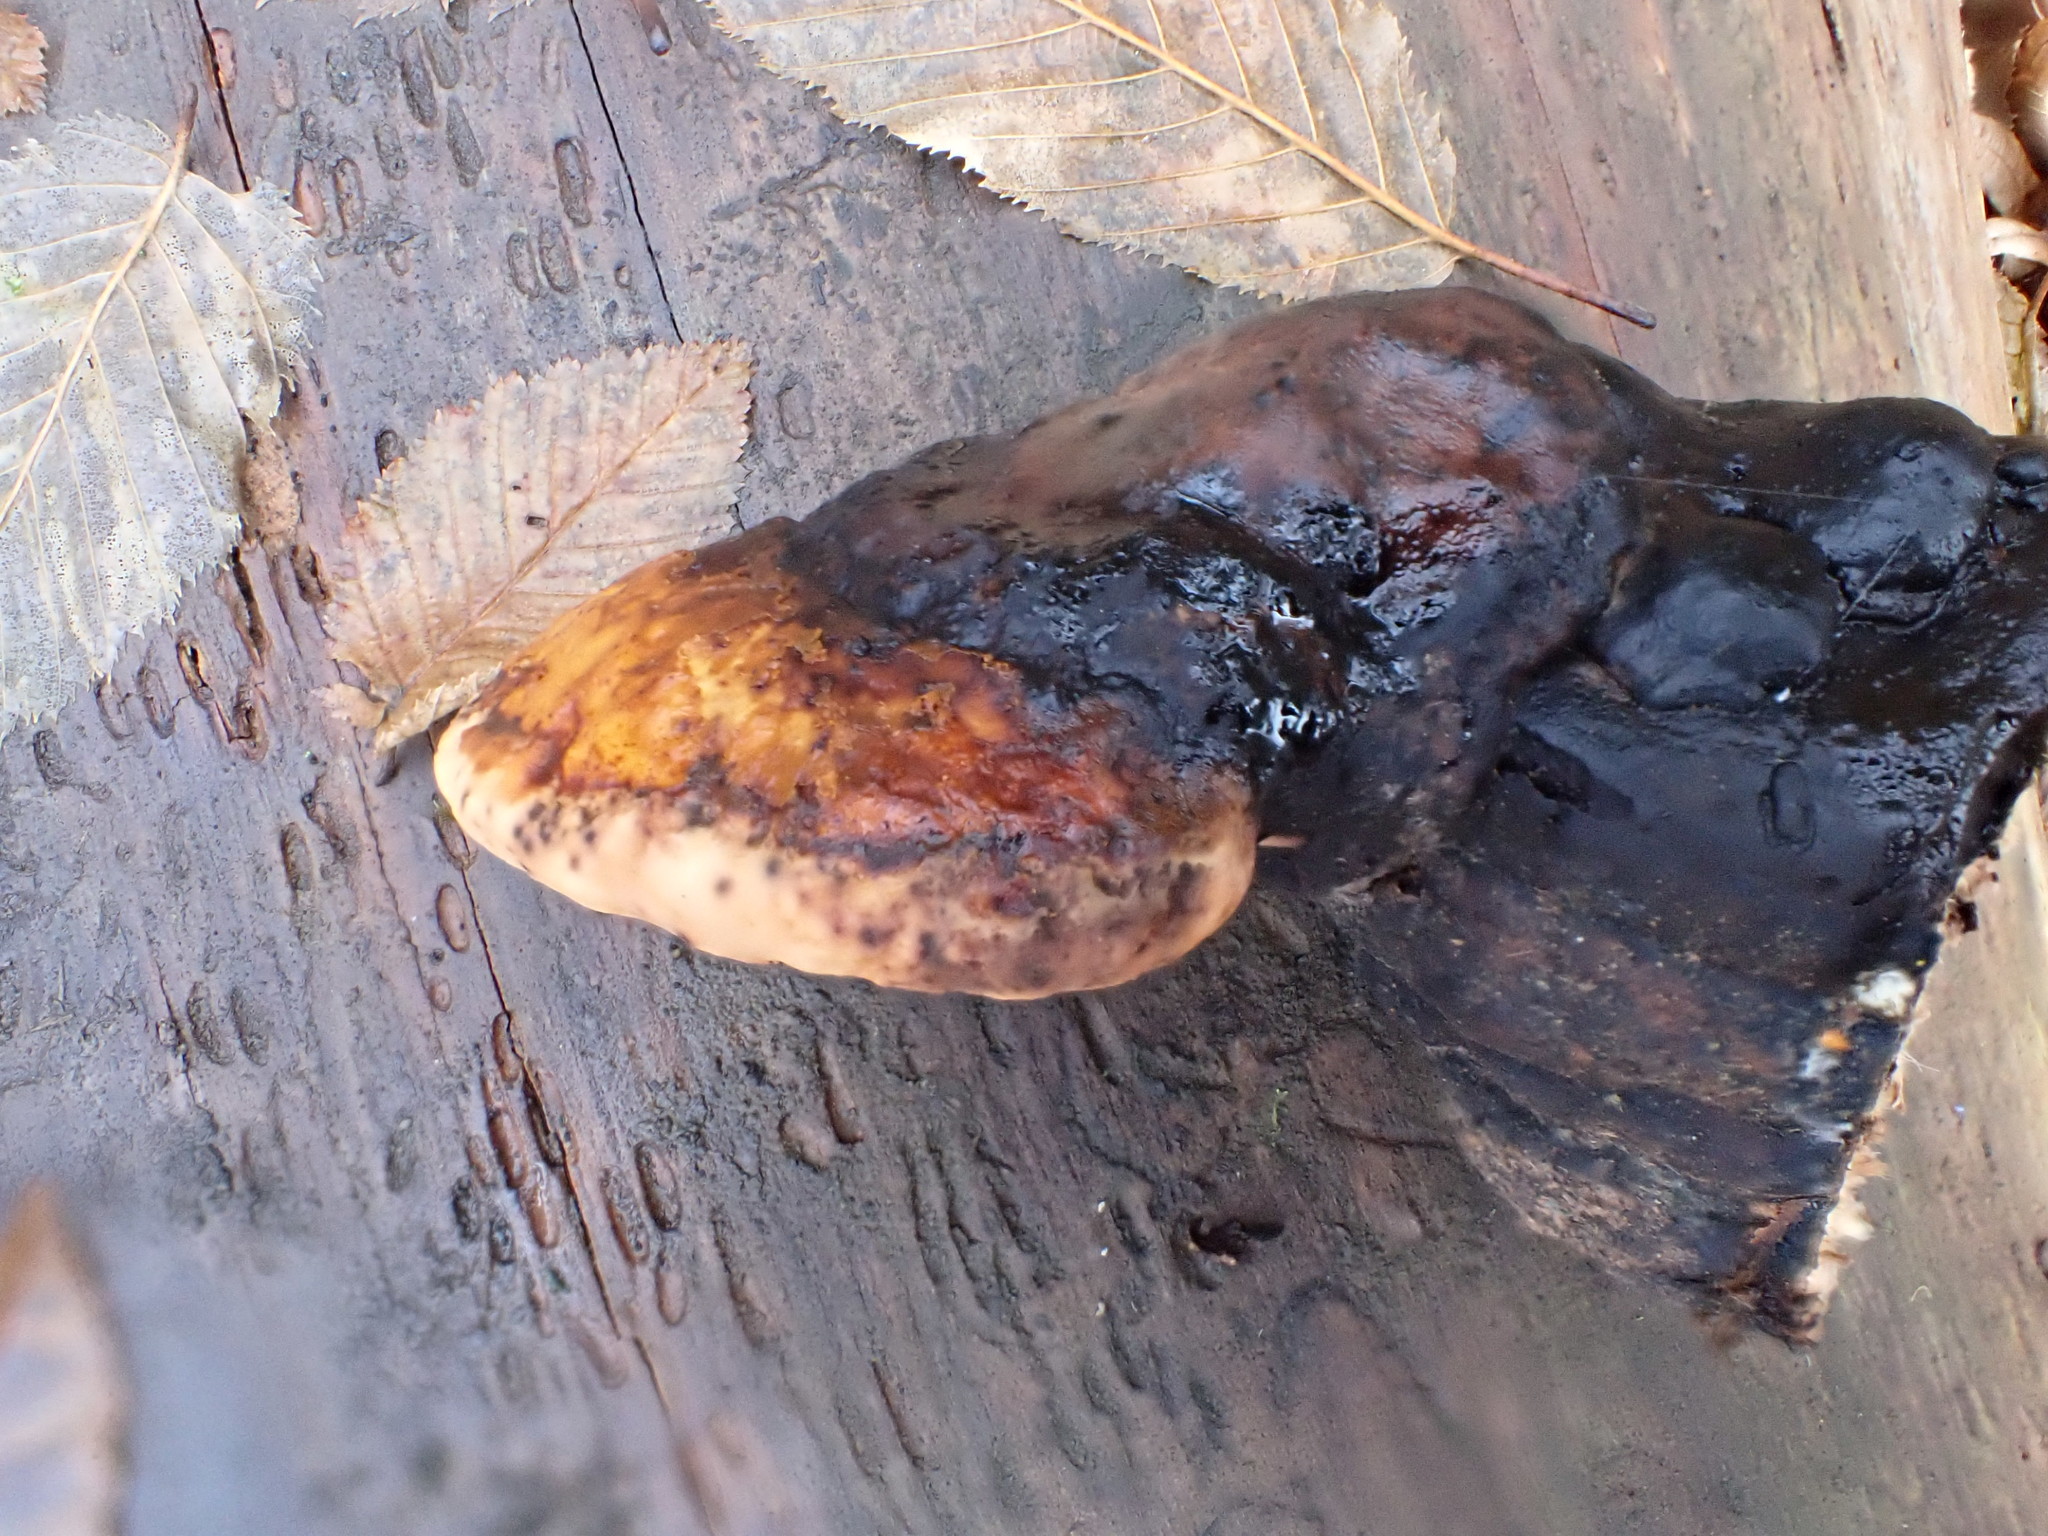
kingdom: Fungi
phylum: Basidiomycota
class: Agaricomycetes
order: Polyporales
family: Fomitopsidaceae
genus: Fomitopsis
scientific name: Fomitopsis pinicola
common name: Red-belted bracket
